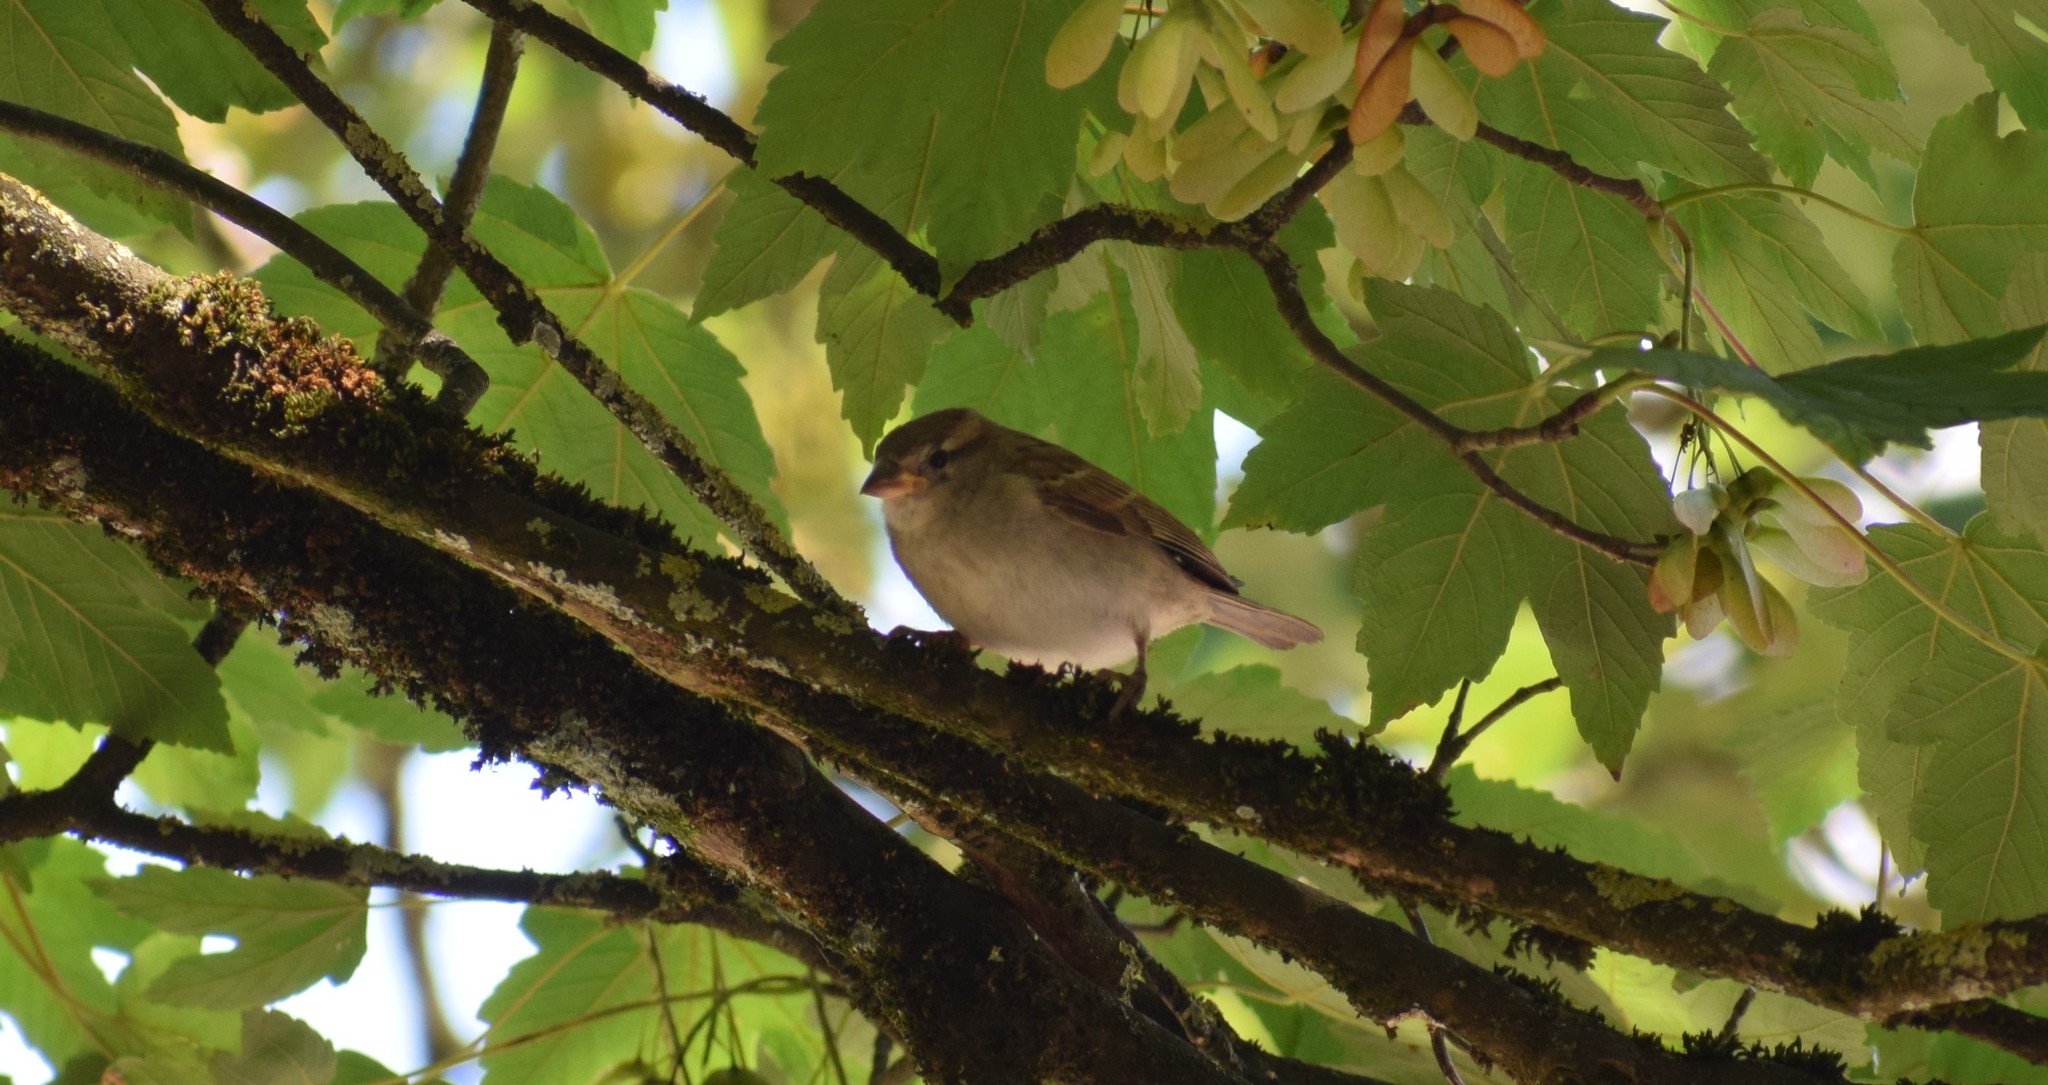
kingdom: Animalia
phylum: Chordata
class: Aves
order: Passeriformes
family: Passeridae
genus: Passer
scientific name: Passer domesticus
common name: House sparrow
